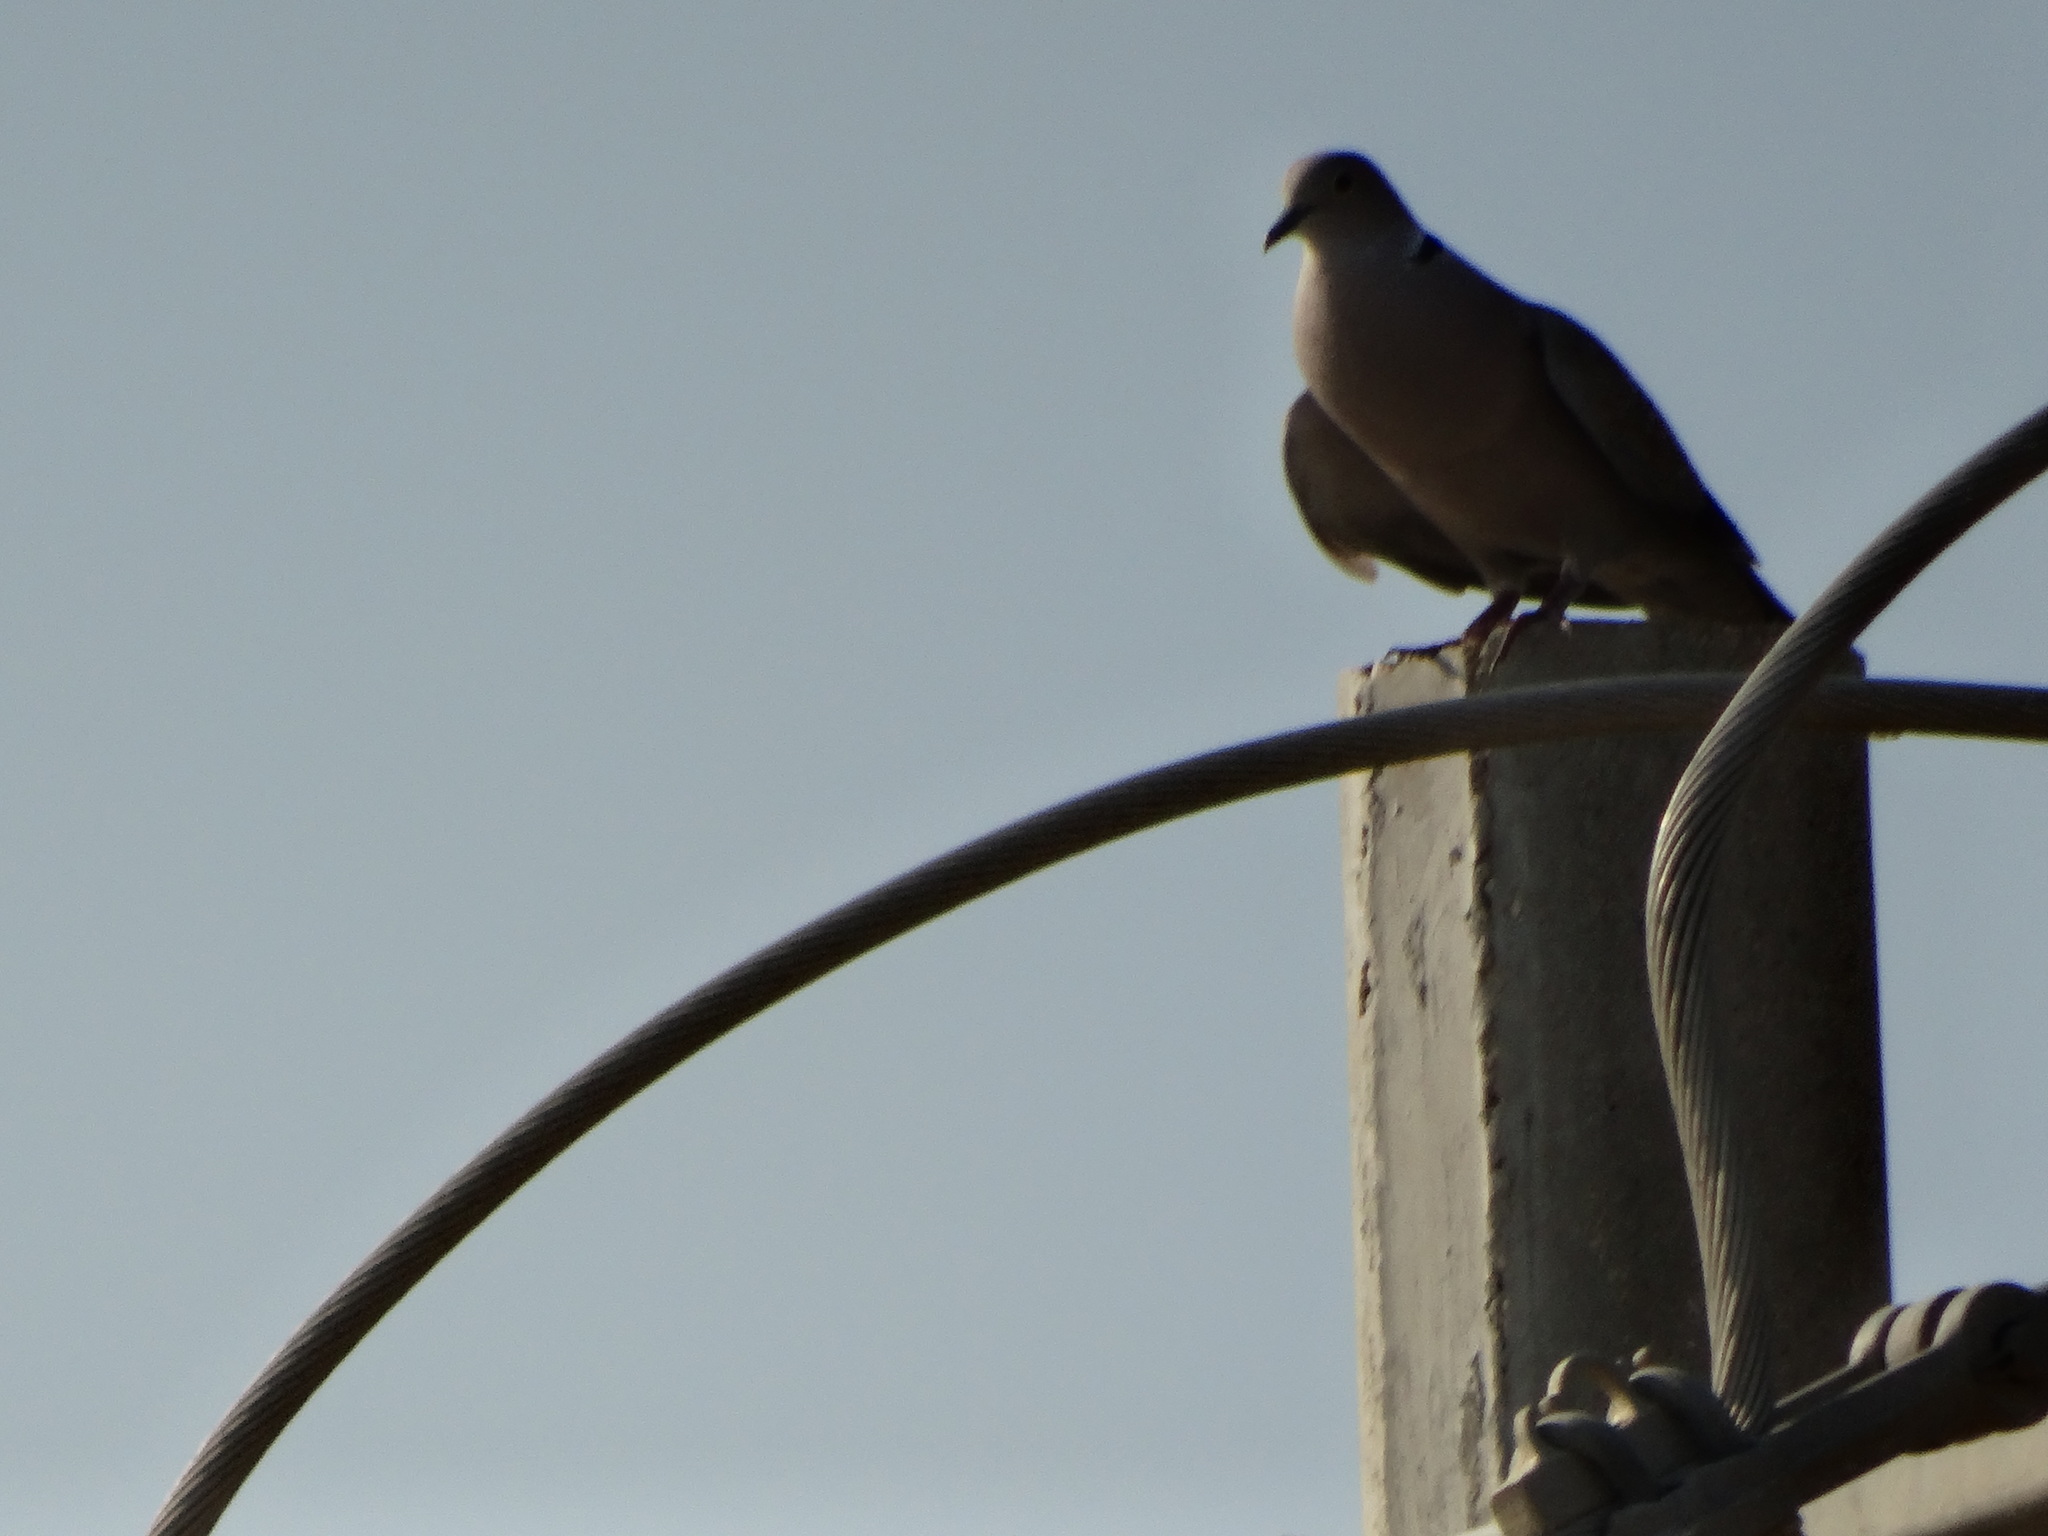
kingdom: Animalia
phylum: Chordata
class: Aves
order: Columbiformes
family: Columbidae
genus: Streptopelia
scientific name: Streptopelia decaocto
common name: Eurasian collared dove
